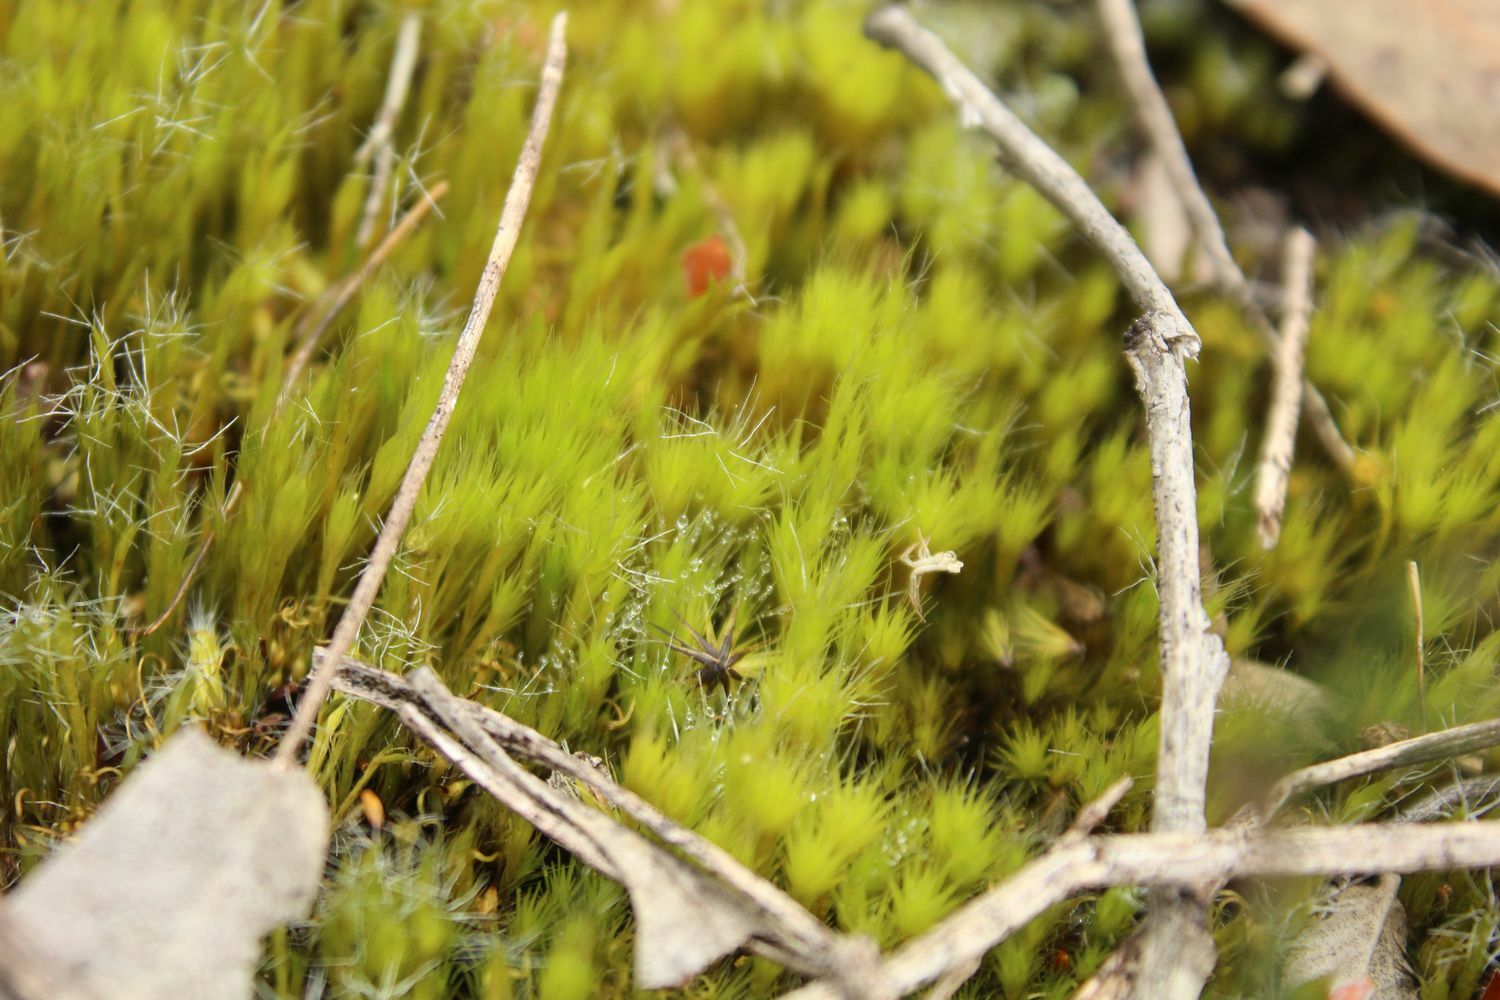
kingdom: Plantae
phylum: Bryophyta
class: Bryopsida
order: Dicranales
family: Leucobryaceae
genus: Campylopus
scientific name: Campylopus introflexus
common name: Heath star moss
